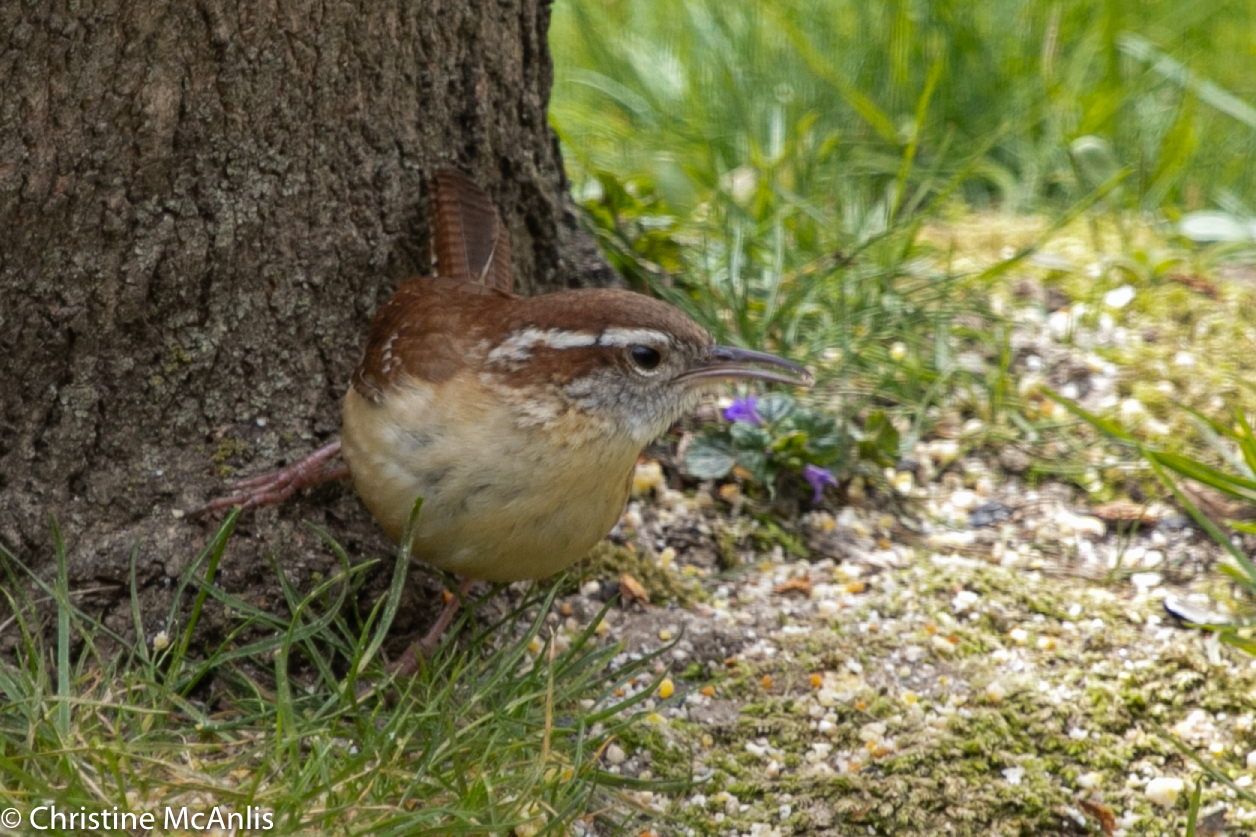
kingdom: Animalia
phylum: Chordata
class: Aves
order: Passeriformes
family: Troglodytidae
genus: Thryothorus
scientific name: Thryothorus ludovicianus
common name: Carolina wren
